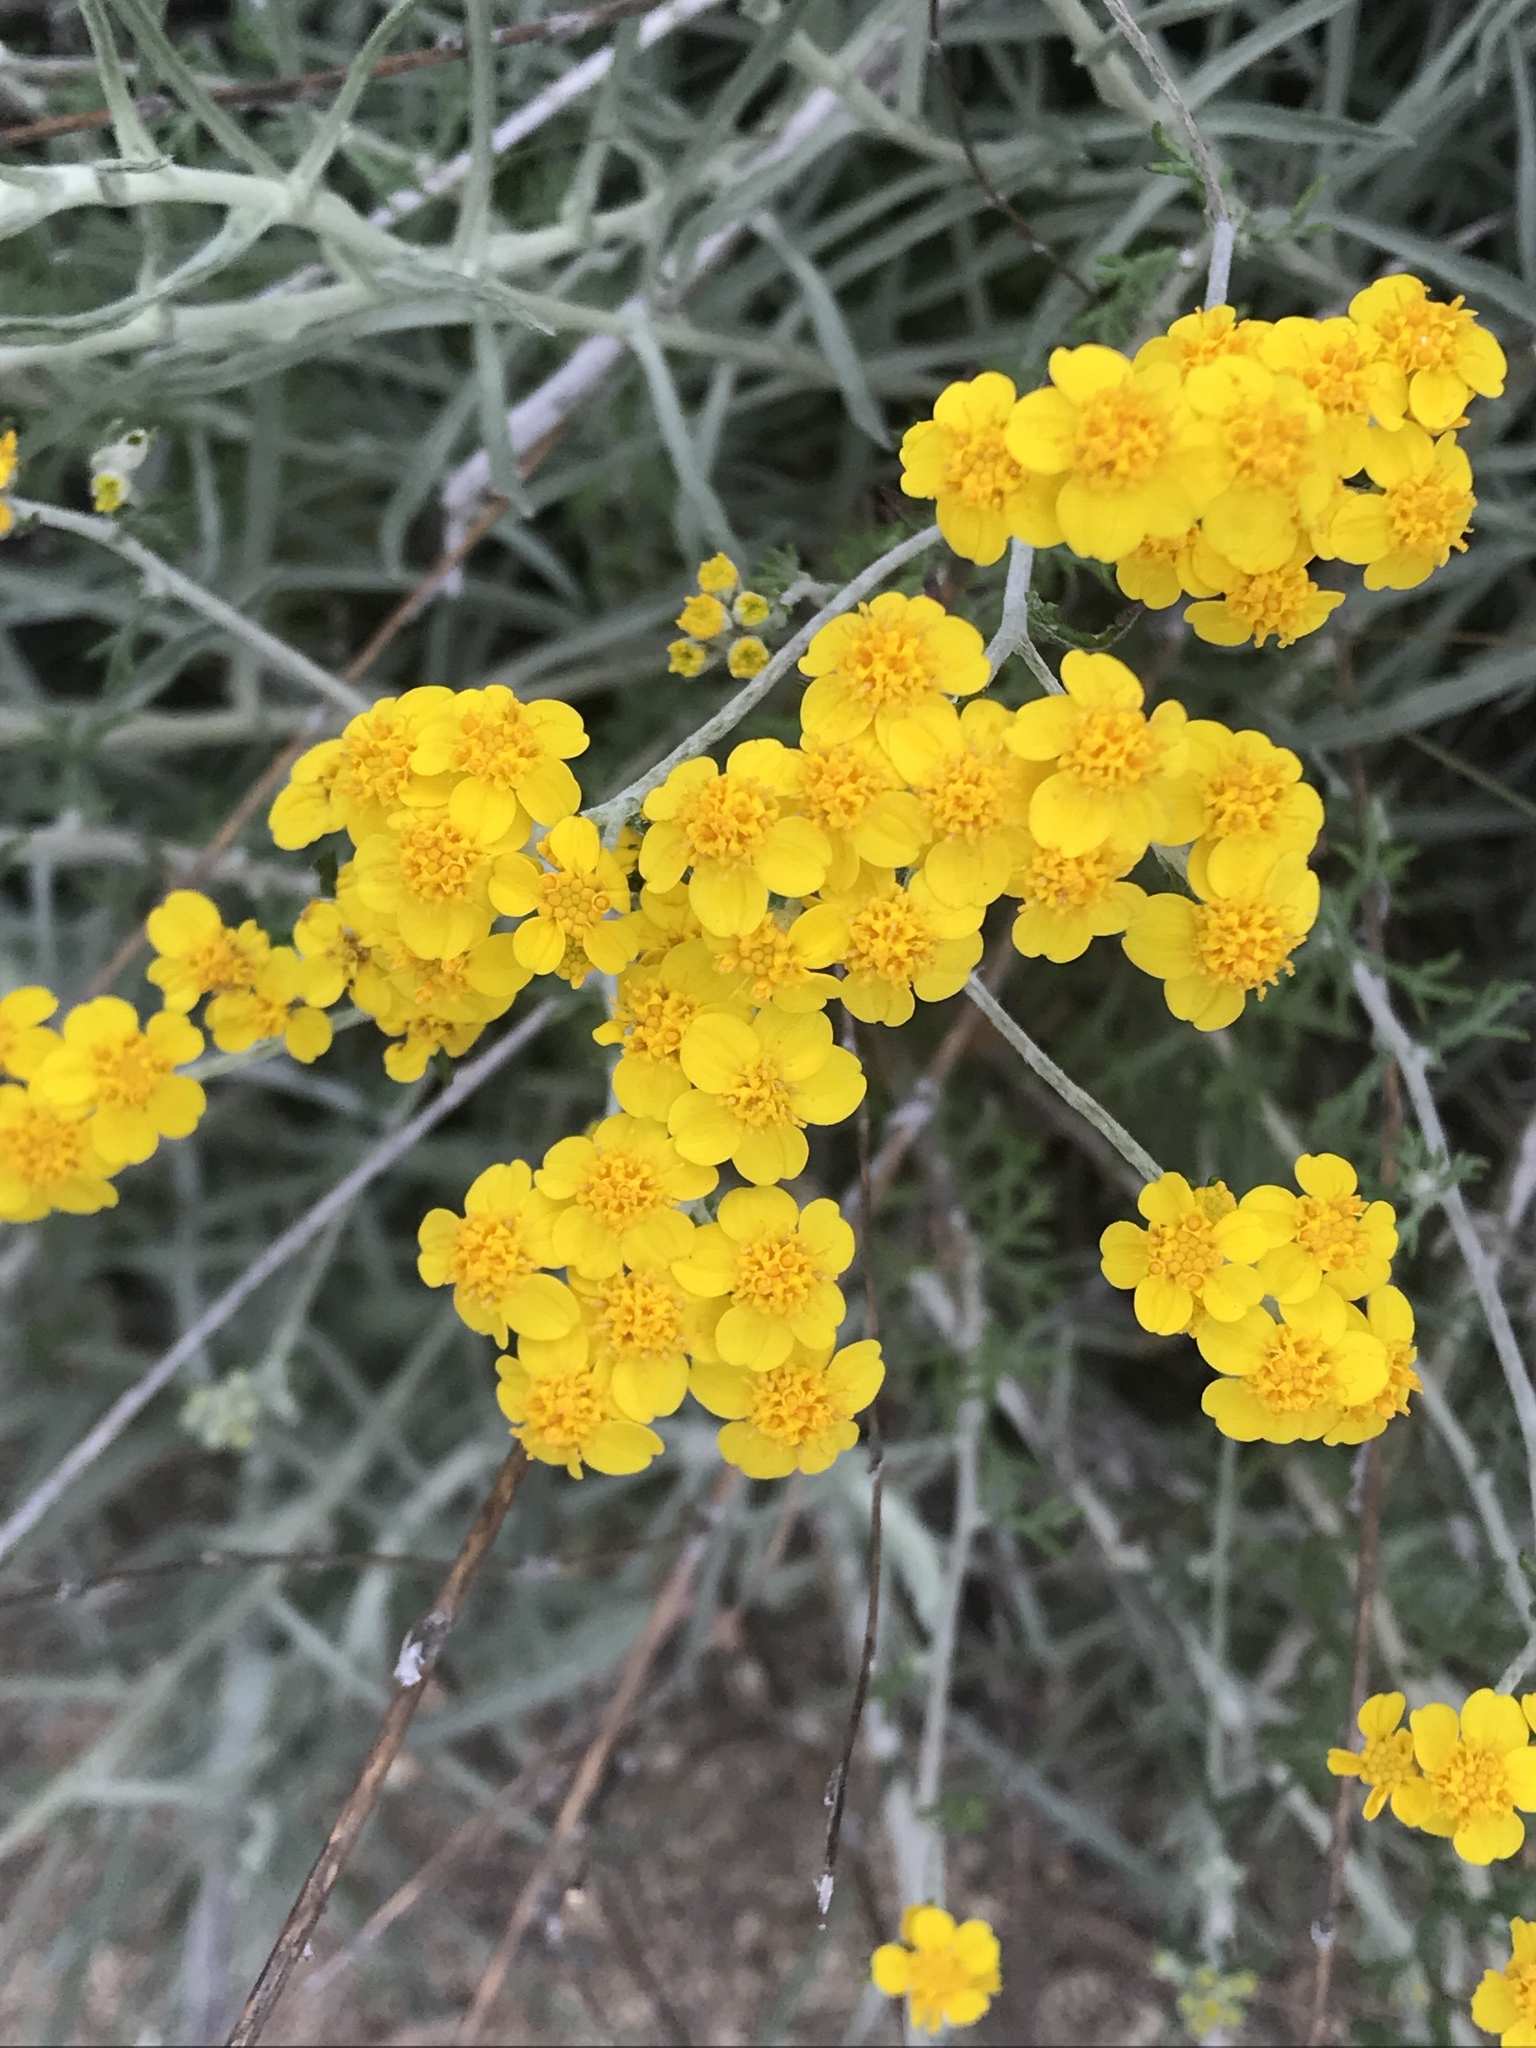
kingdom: Plantae
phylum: Tracheophyta
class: Magnoliopsida
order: Asterales
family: Asteraceae
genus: Eriophyllum
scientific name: Eriophyllum confertiflorum
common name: Golden-yarrow
